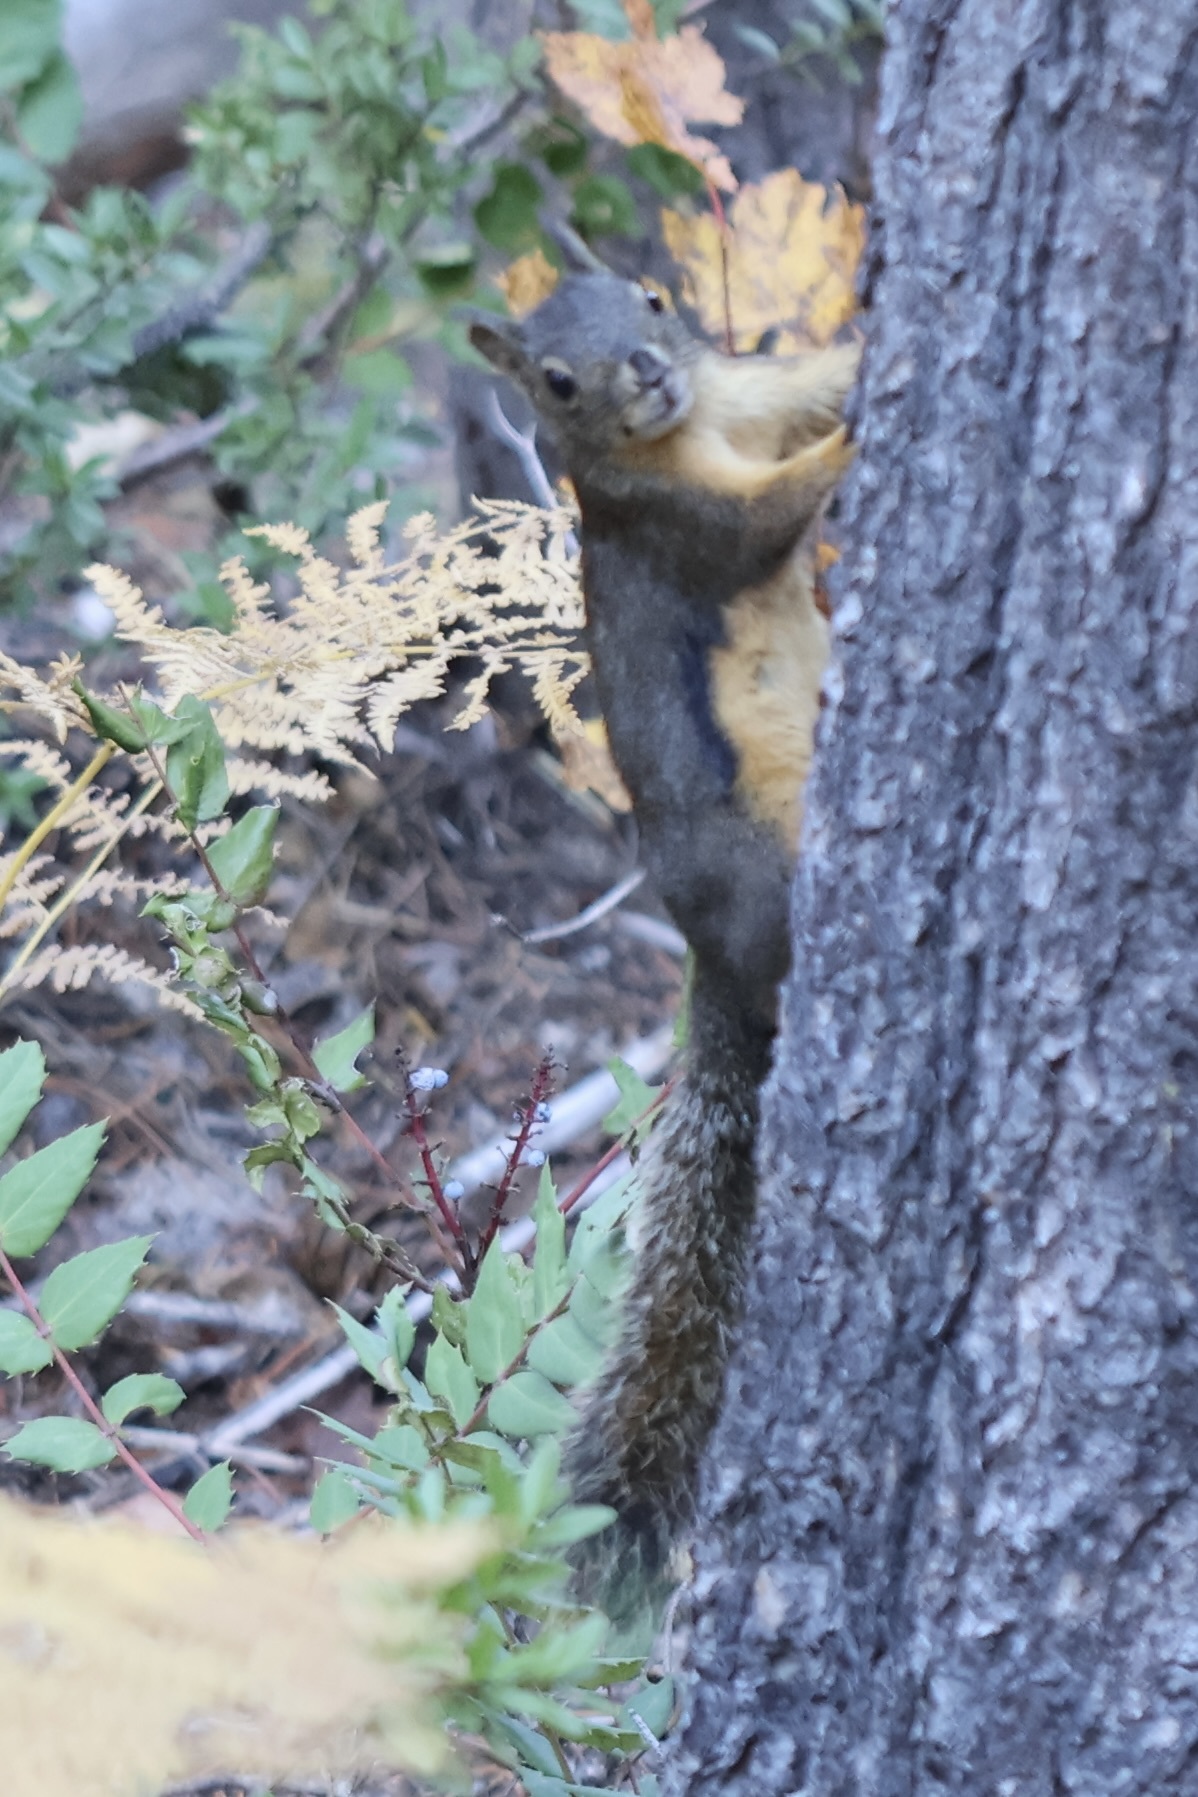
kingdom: Animalia
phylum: Chordata
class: Mammalia
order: Rodentia
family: Sciuridae
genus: Tamiasciurus
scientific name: Tamiasciurus douglasii
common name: Douglas's squirrel
